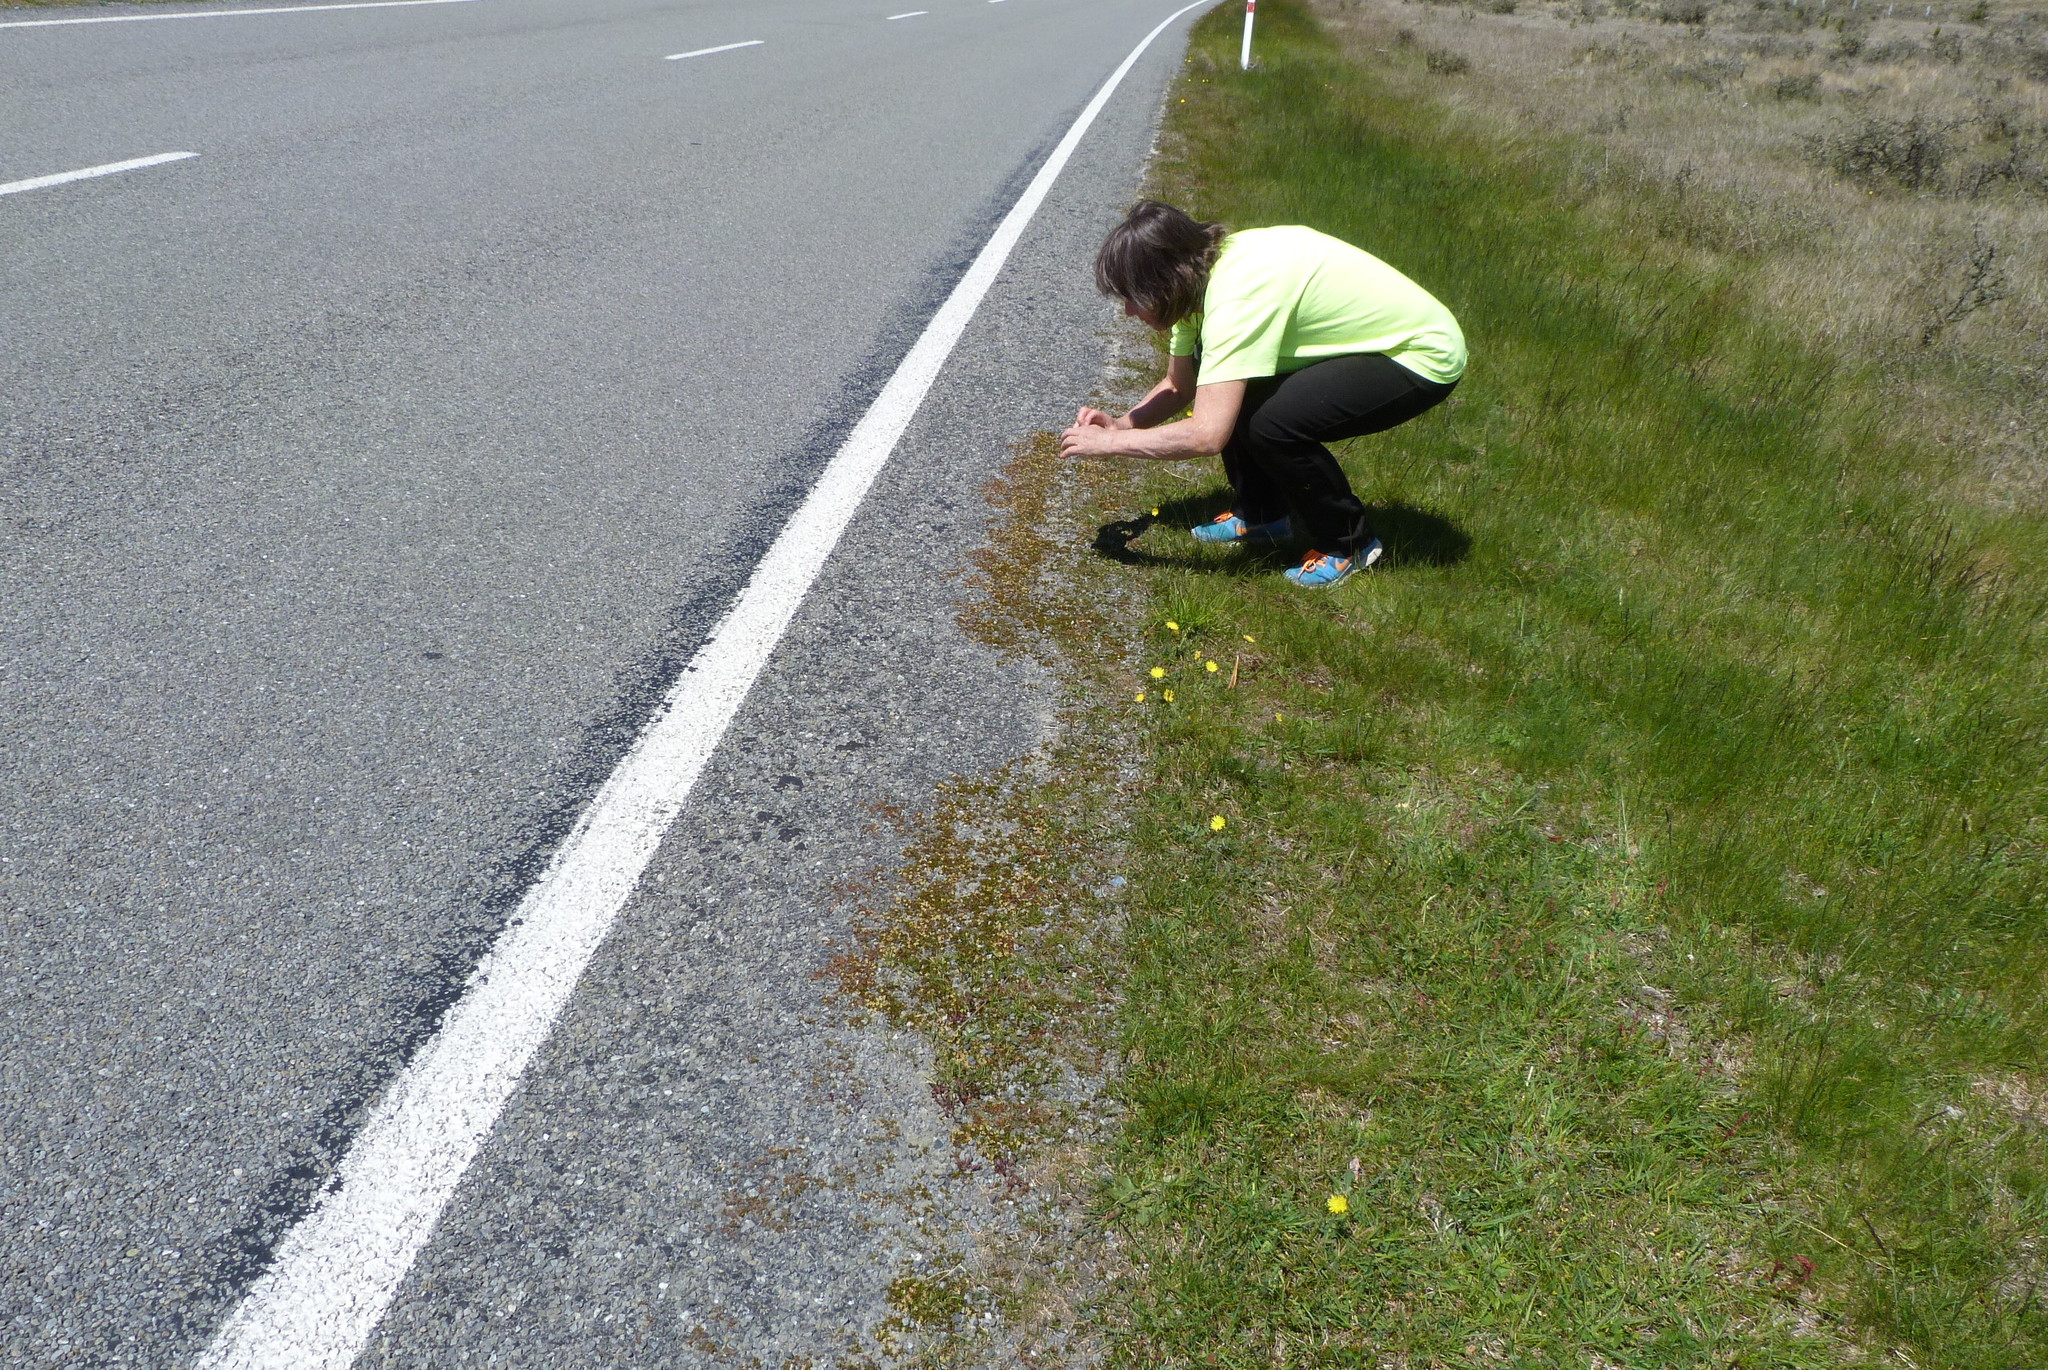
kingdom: Plantae
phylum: Tracheophyta
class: Magnoliopsida
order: Caryophyllales
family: Polygonaceae
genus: Muehlenbeckia
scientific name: Muehlenbeckia axillaris
